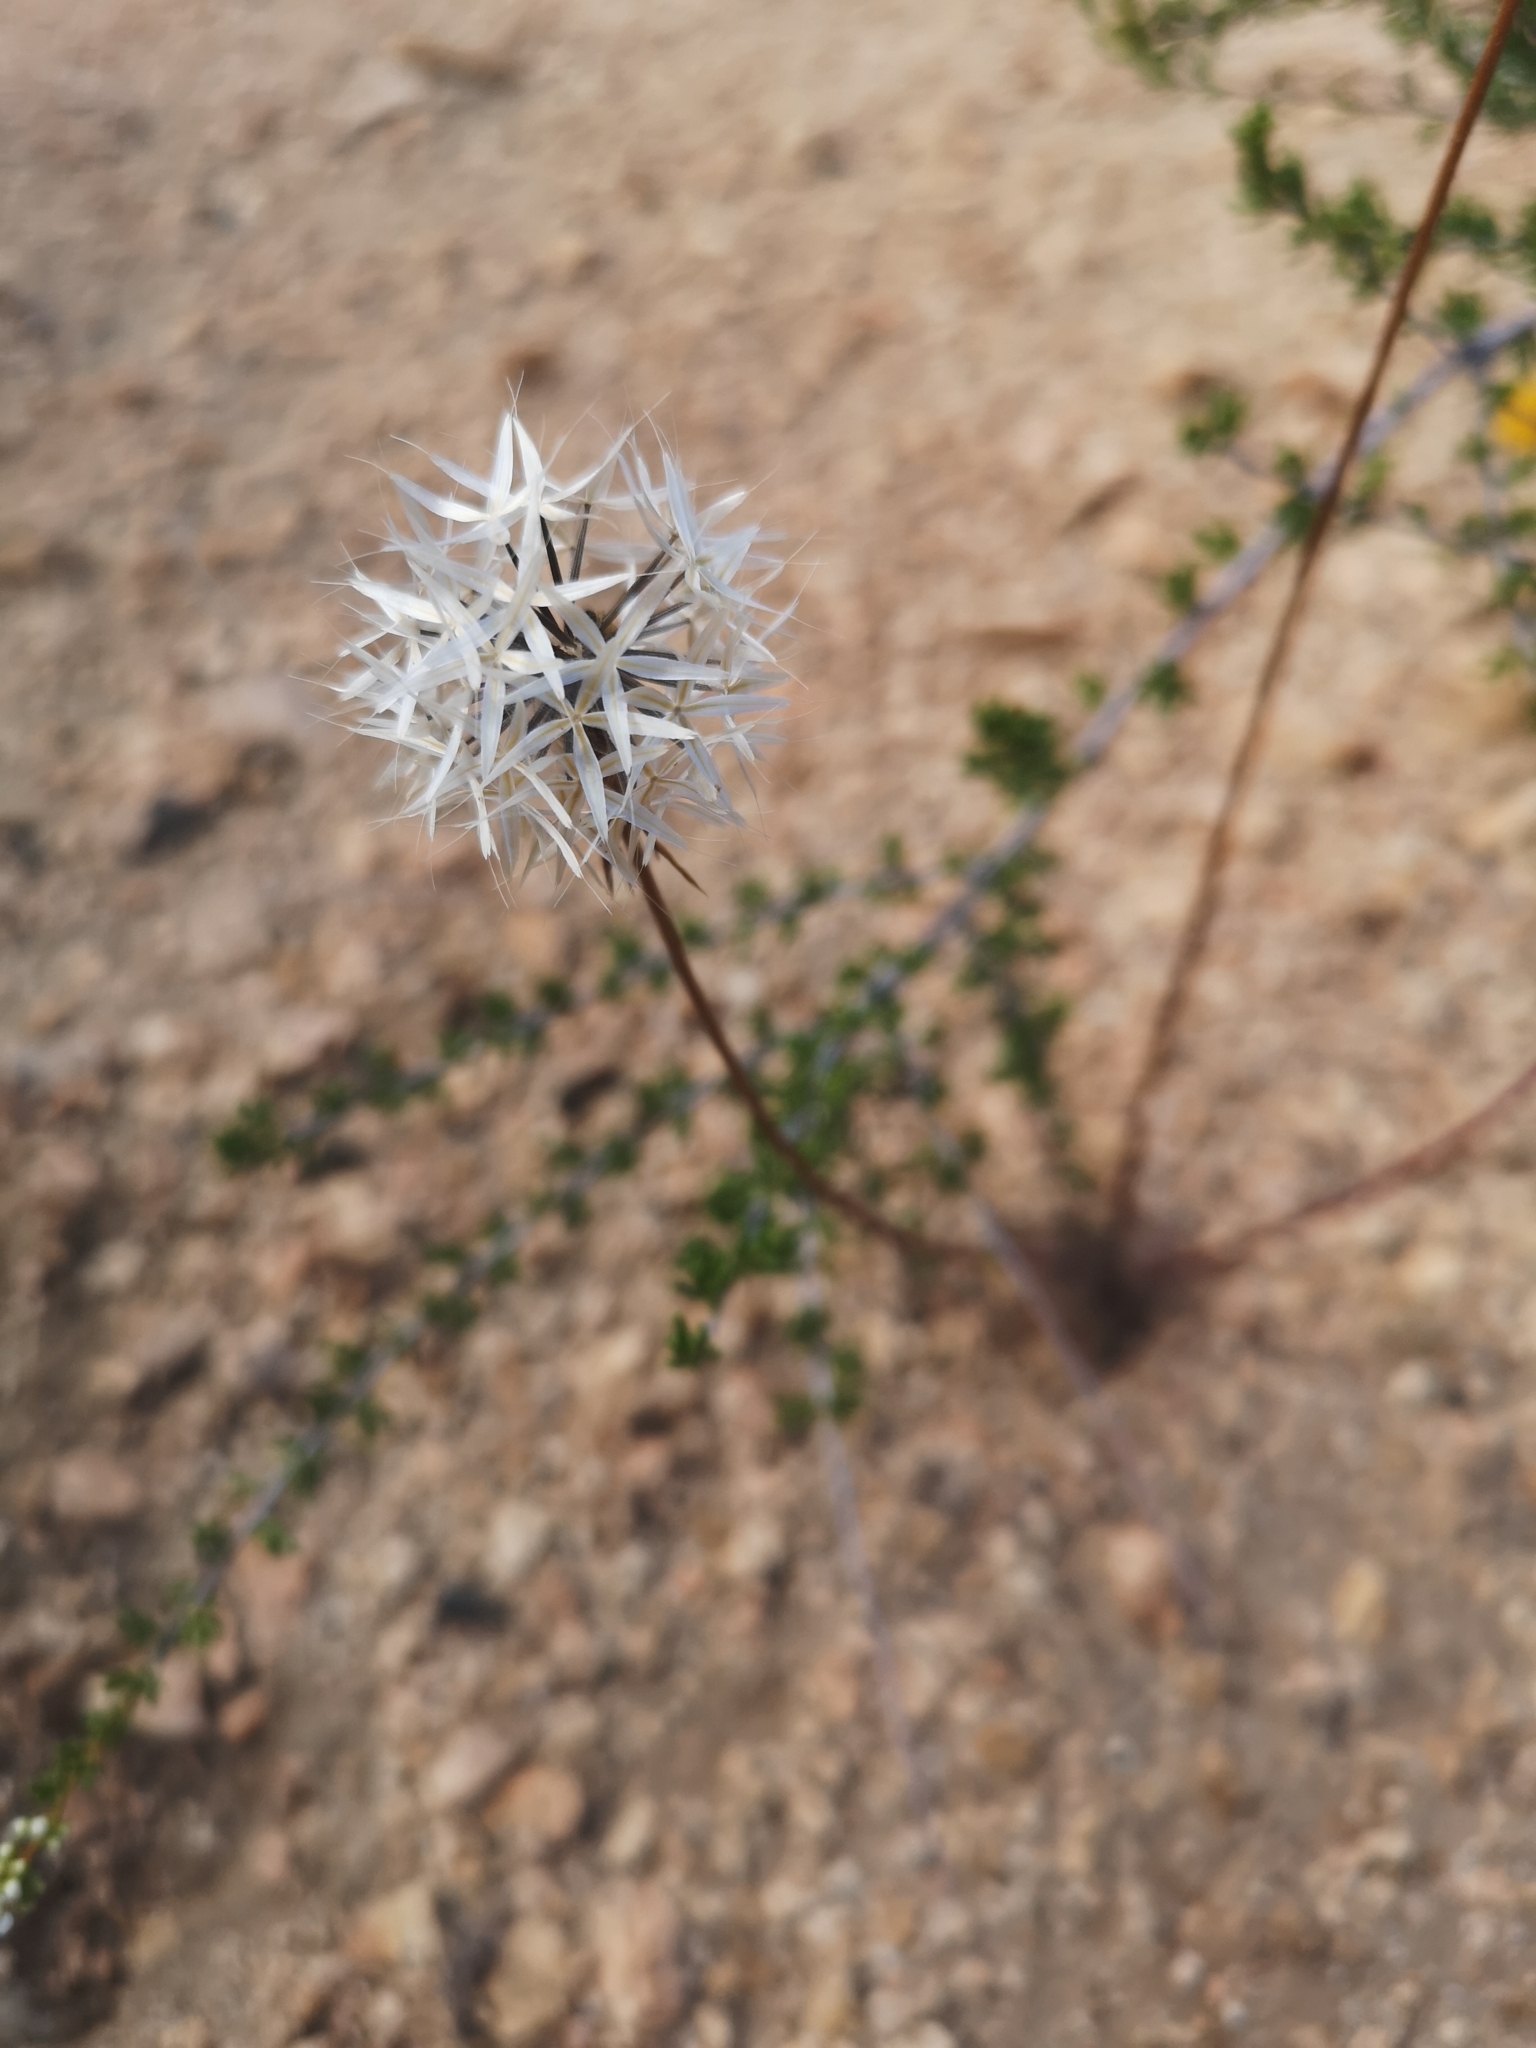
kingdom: Plantae
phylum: Tracheophyta
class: Magnoliopsida
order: Asterales
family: Asteraceae
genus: Microseris
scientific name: Microseris lindleyi
